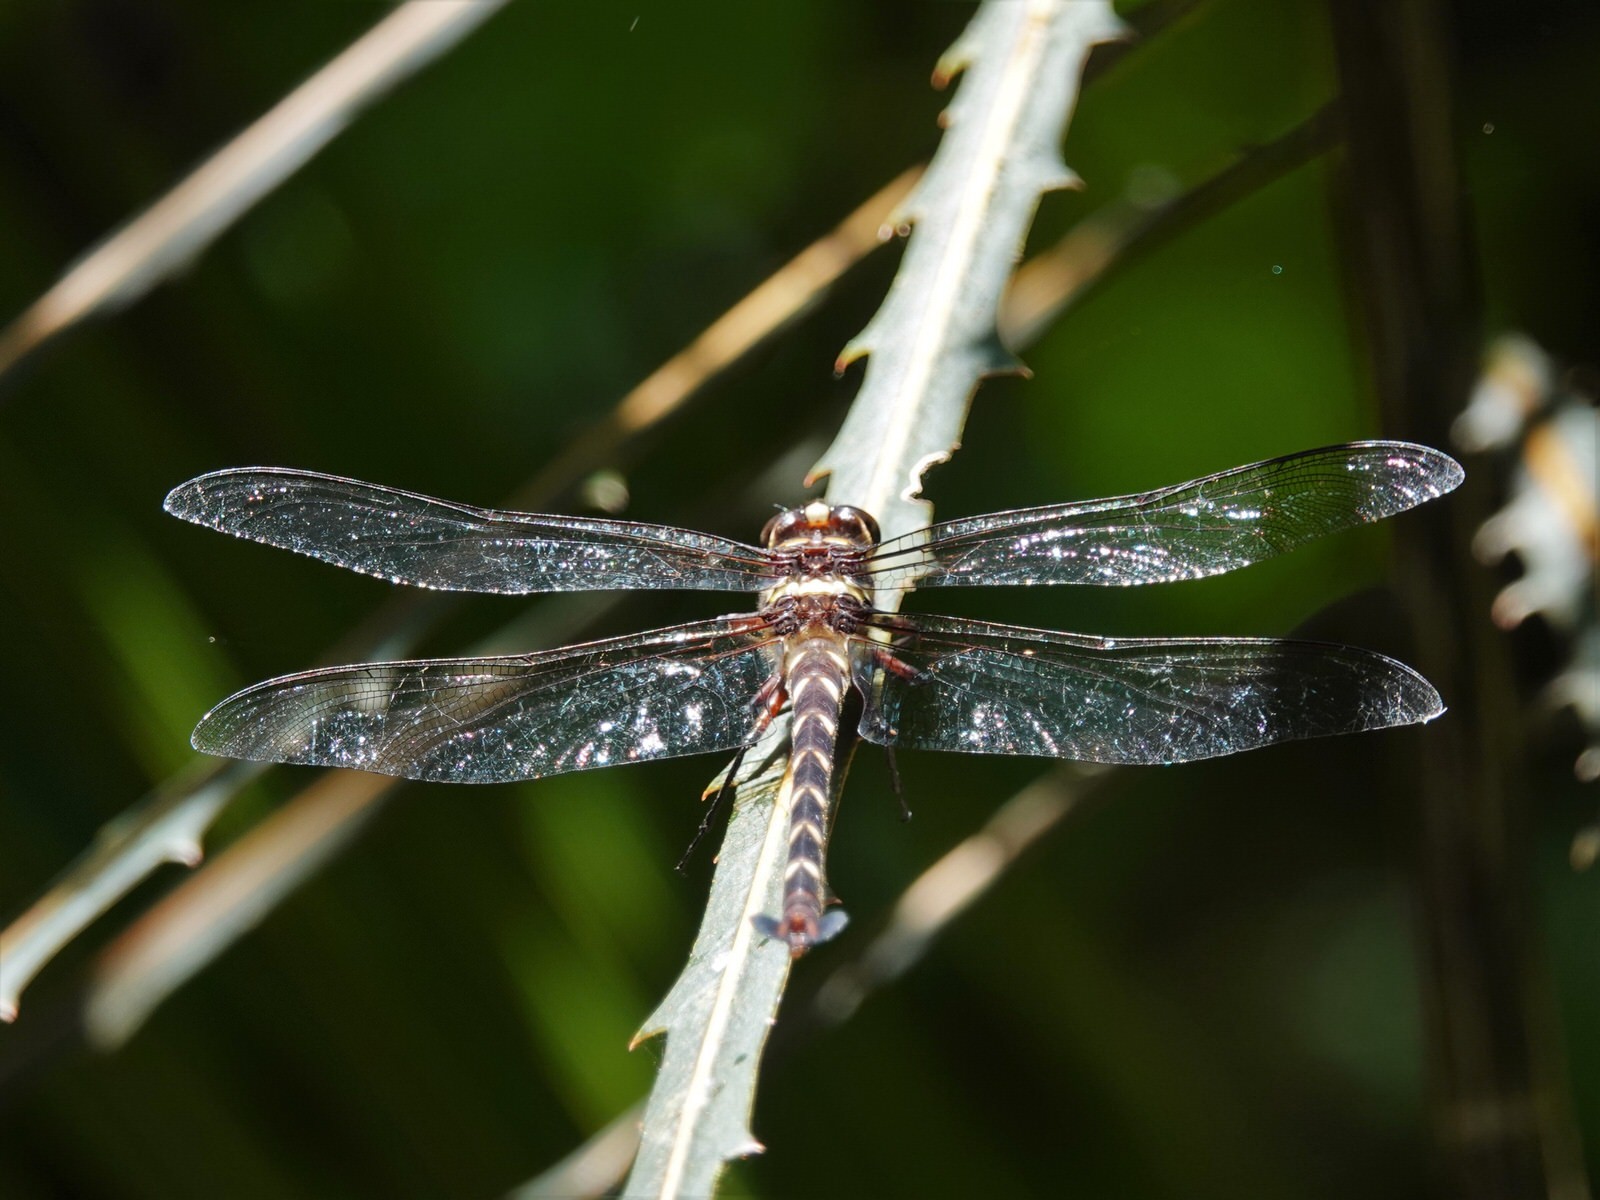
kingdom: Animalia
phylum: Arthropoda
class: Insecta
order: Odonata
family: Petaluridae
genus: Uropetala
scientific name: Uropetala carovei
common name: Bush giant dragonfly
